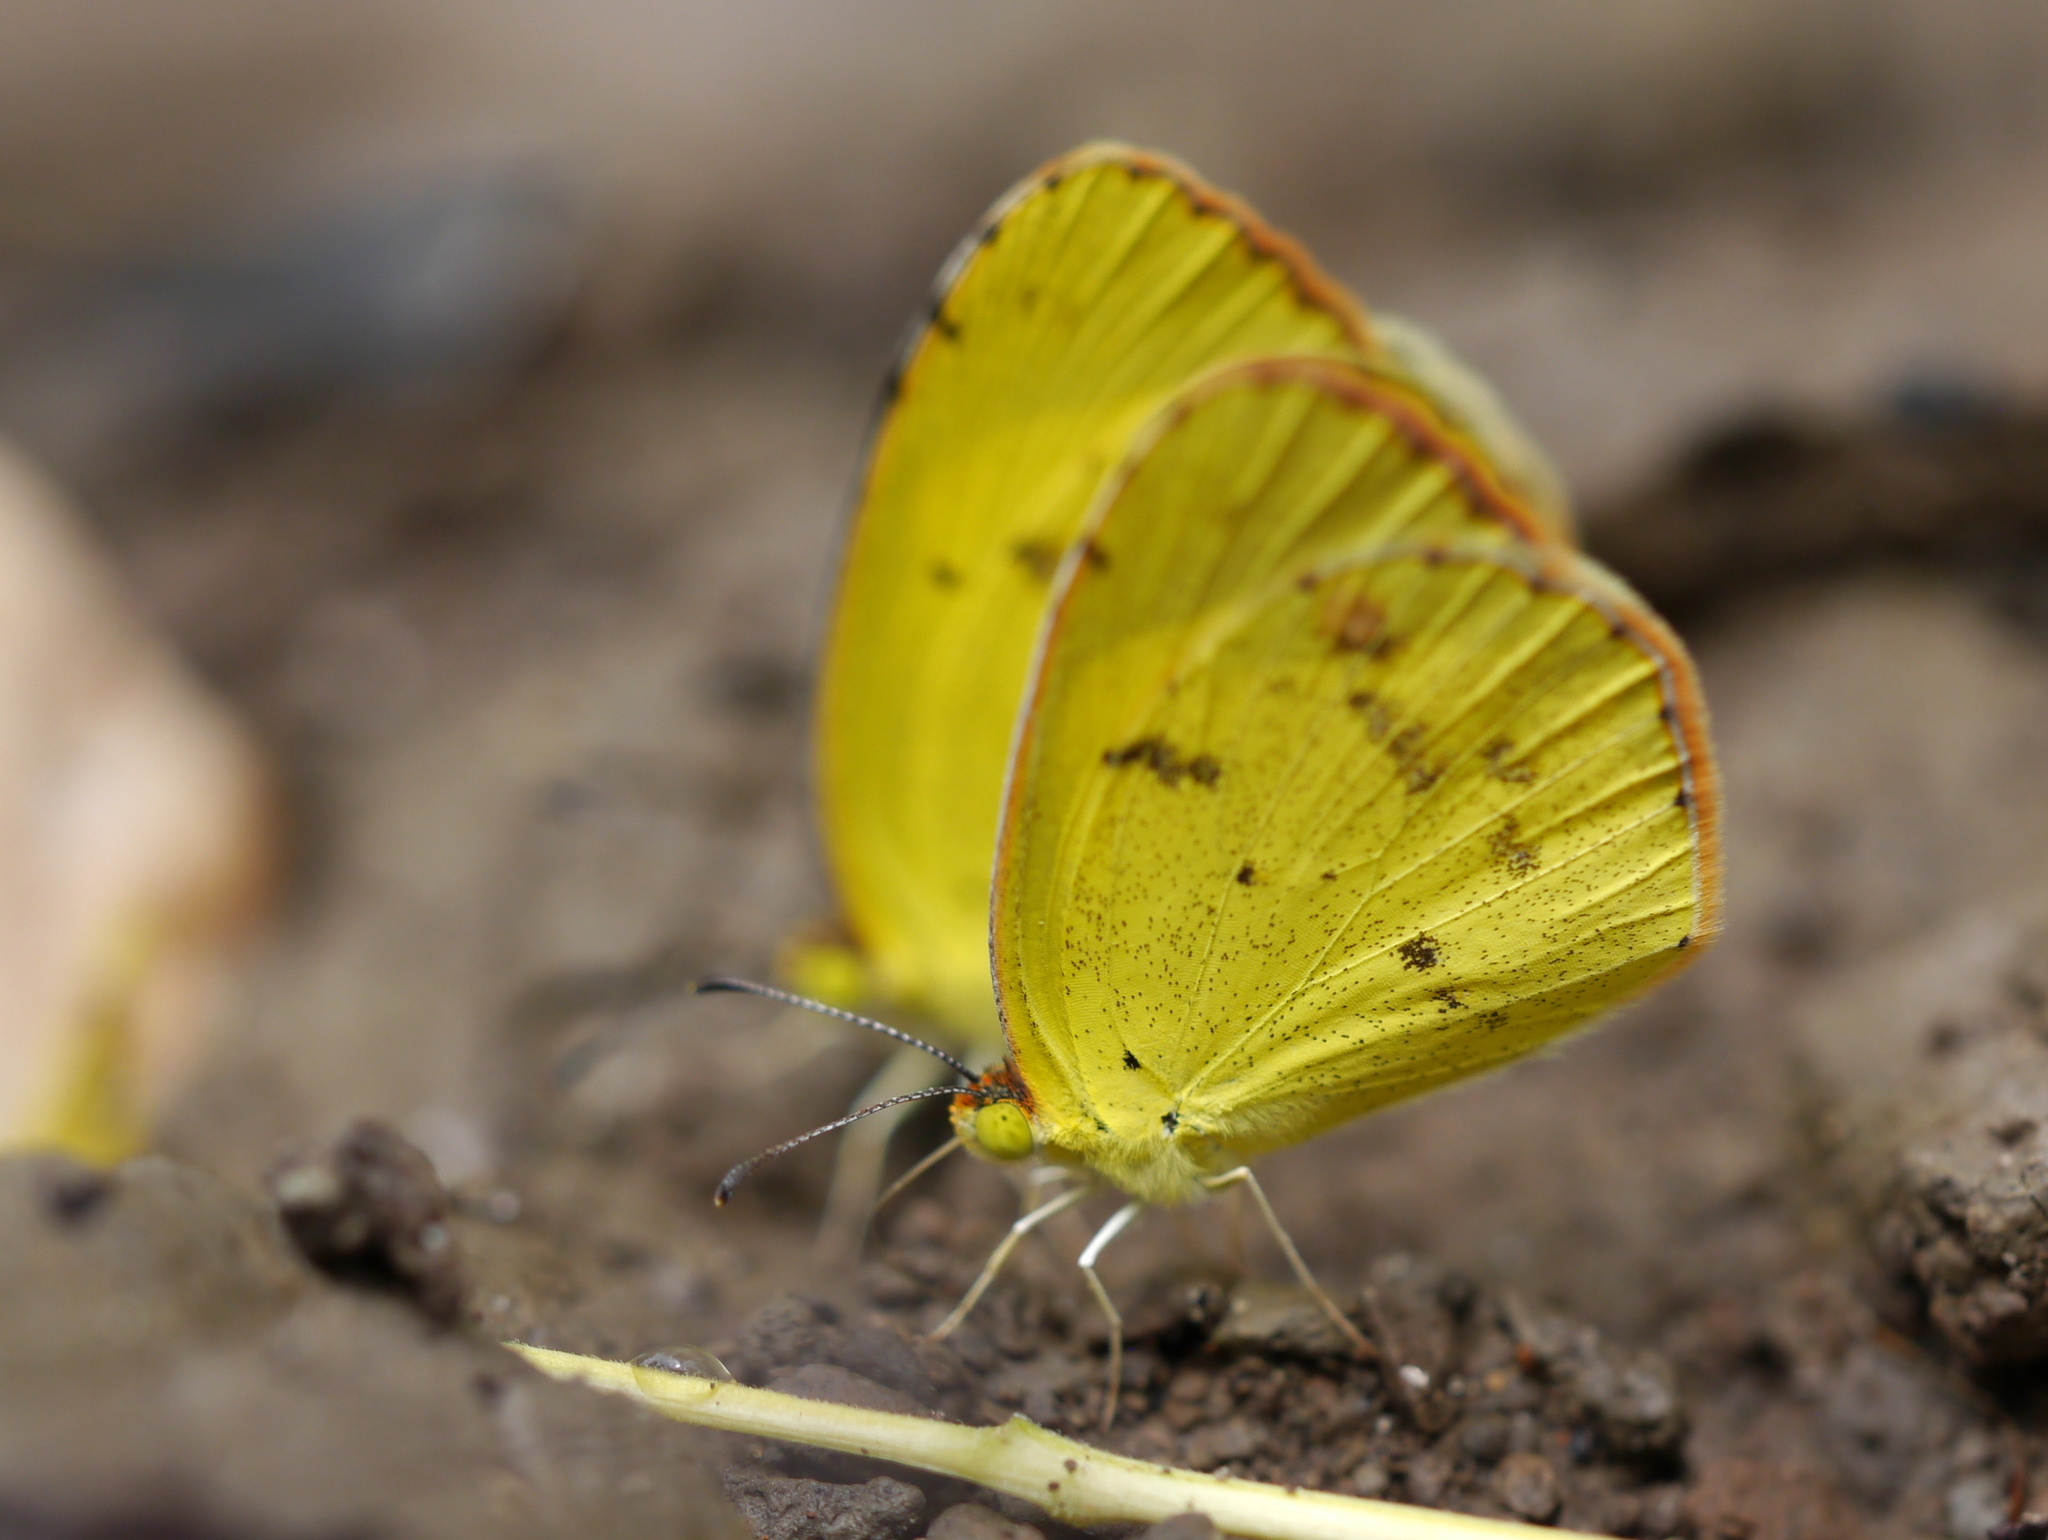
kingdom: Animalia
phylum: Arthropoda
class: Insecta
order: Lepidoptera
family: Pieridae
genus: Pyrisitia
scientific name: Pyrisitia lisa
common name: Little yellow
